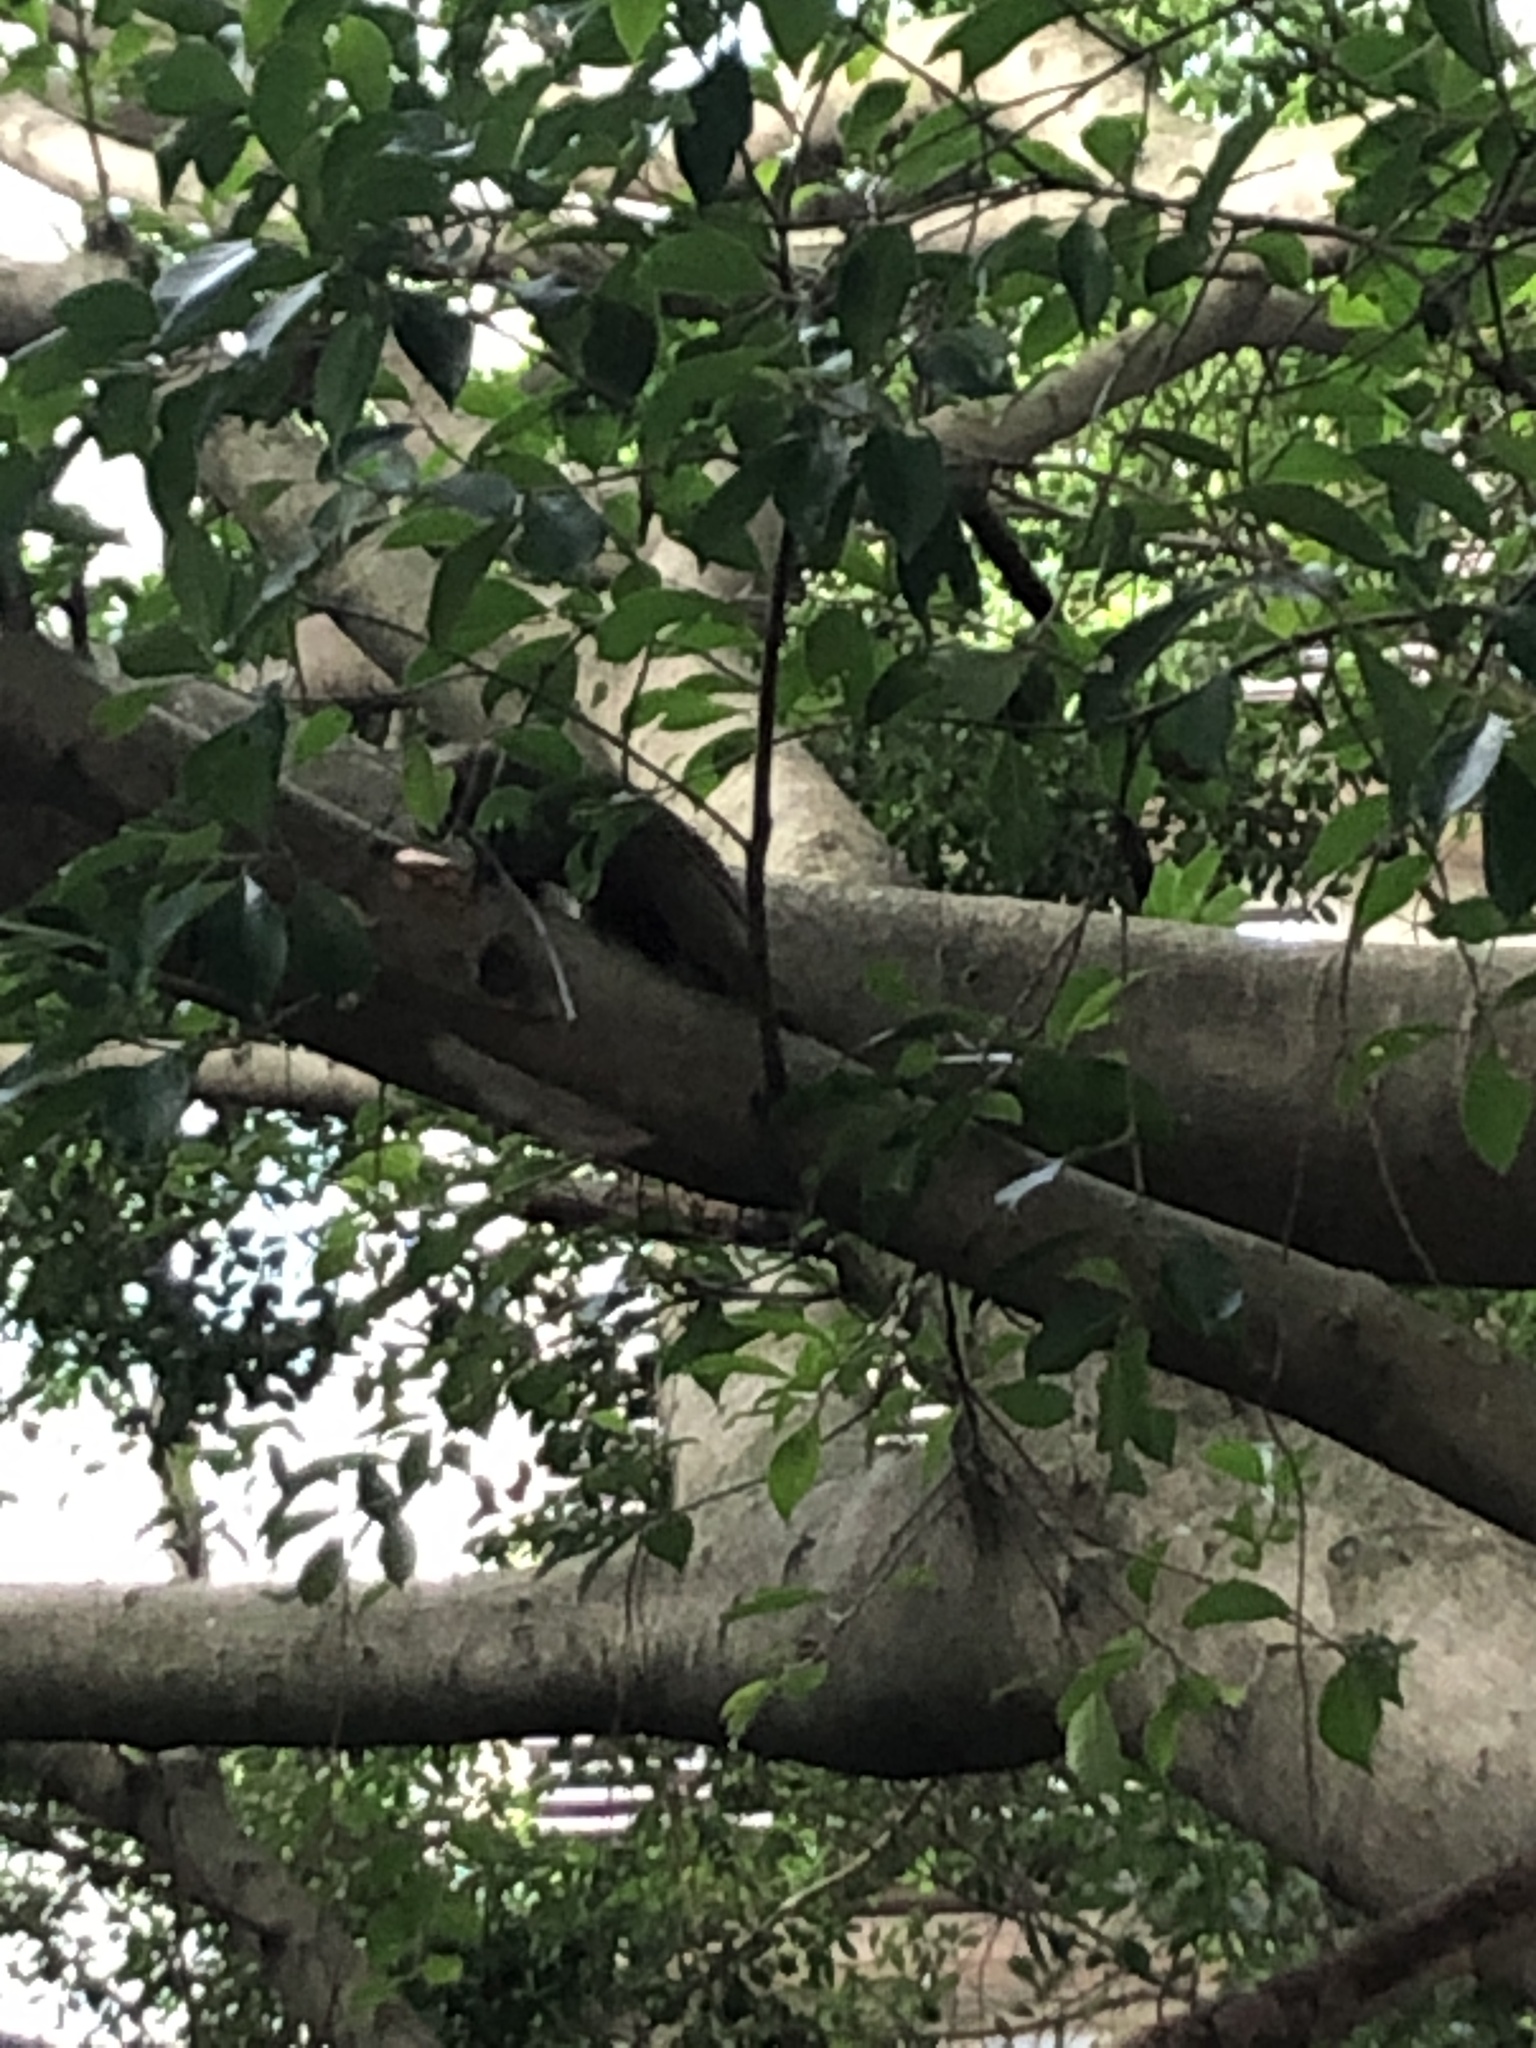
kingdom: Animalia
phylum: Chordata
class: Mammalia
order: Rodentia
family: Sciuridae
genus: Callosciurus
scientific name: Callosciurus erythraeus
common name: Pallas's squirrel
